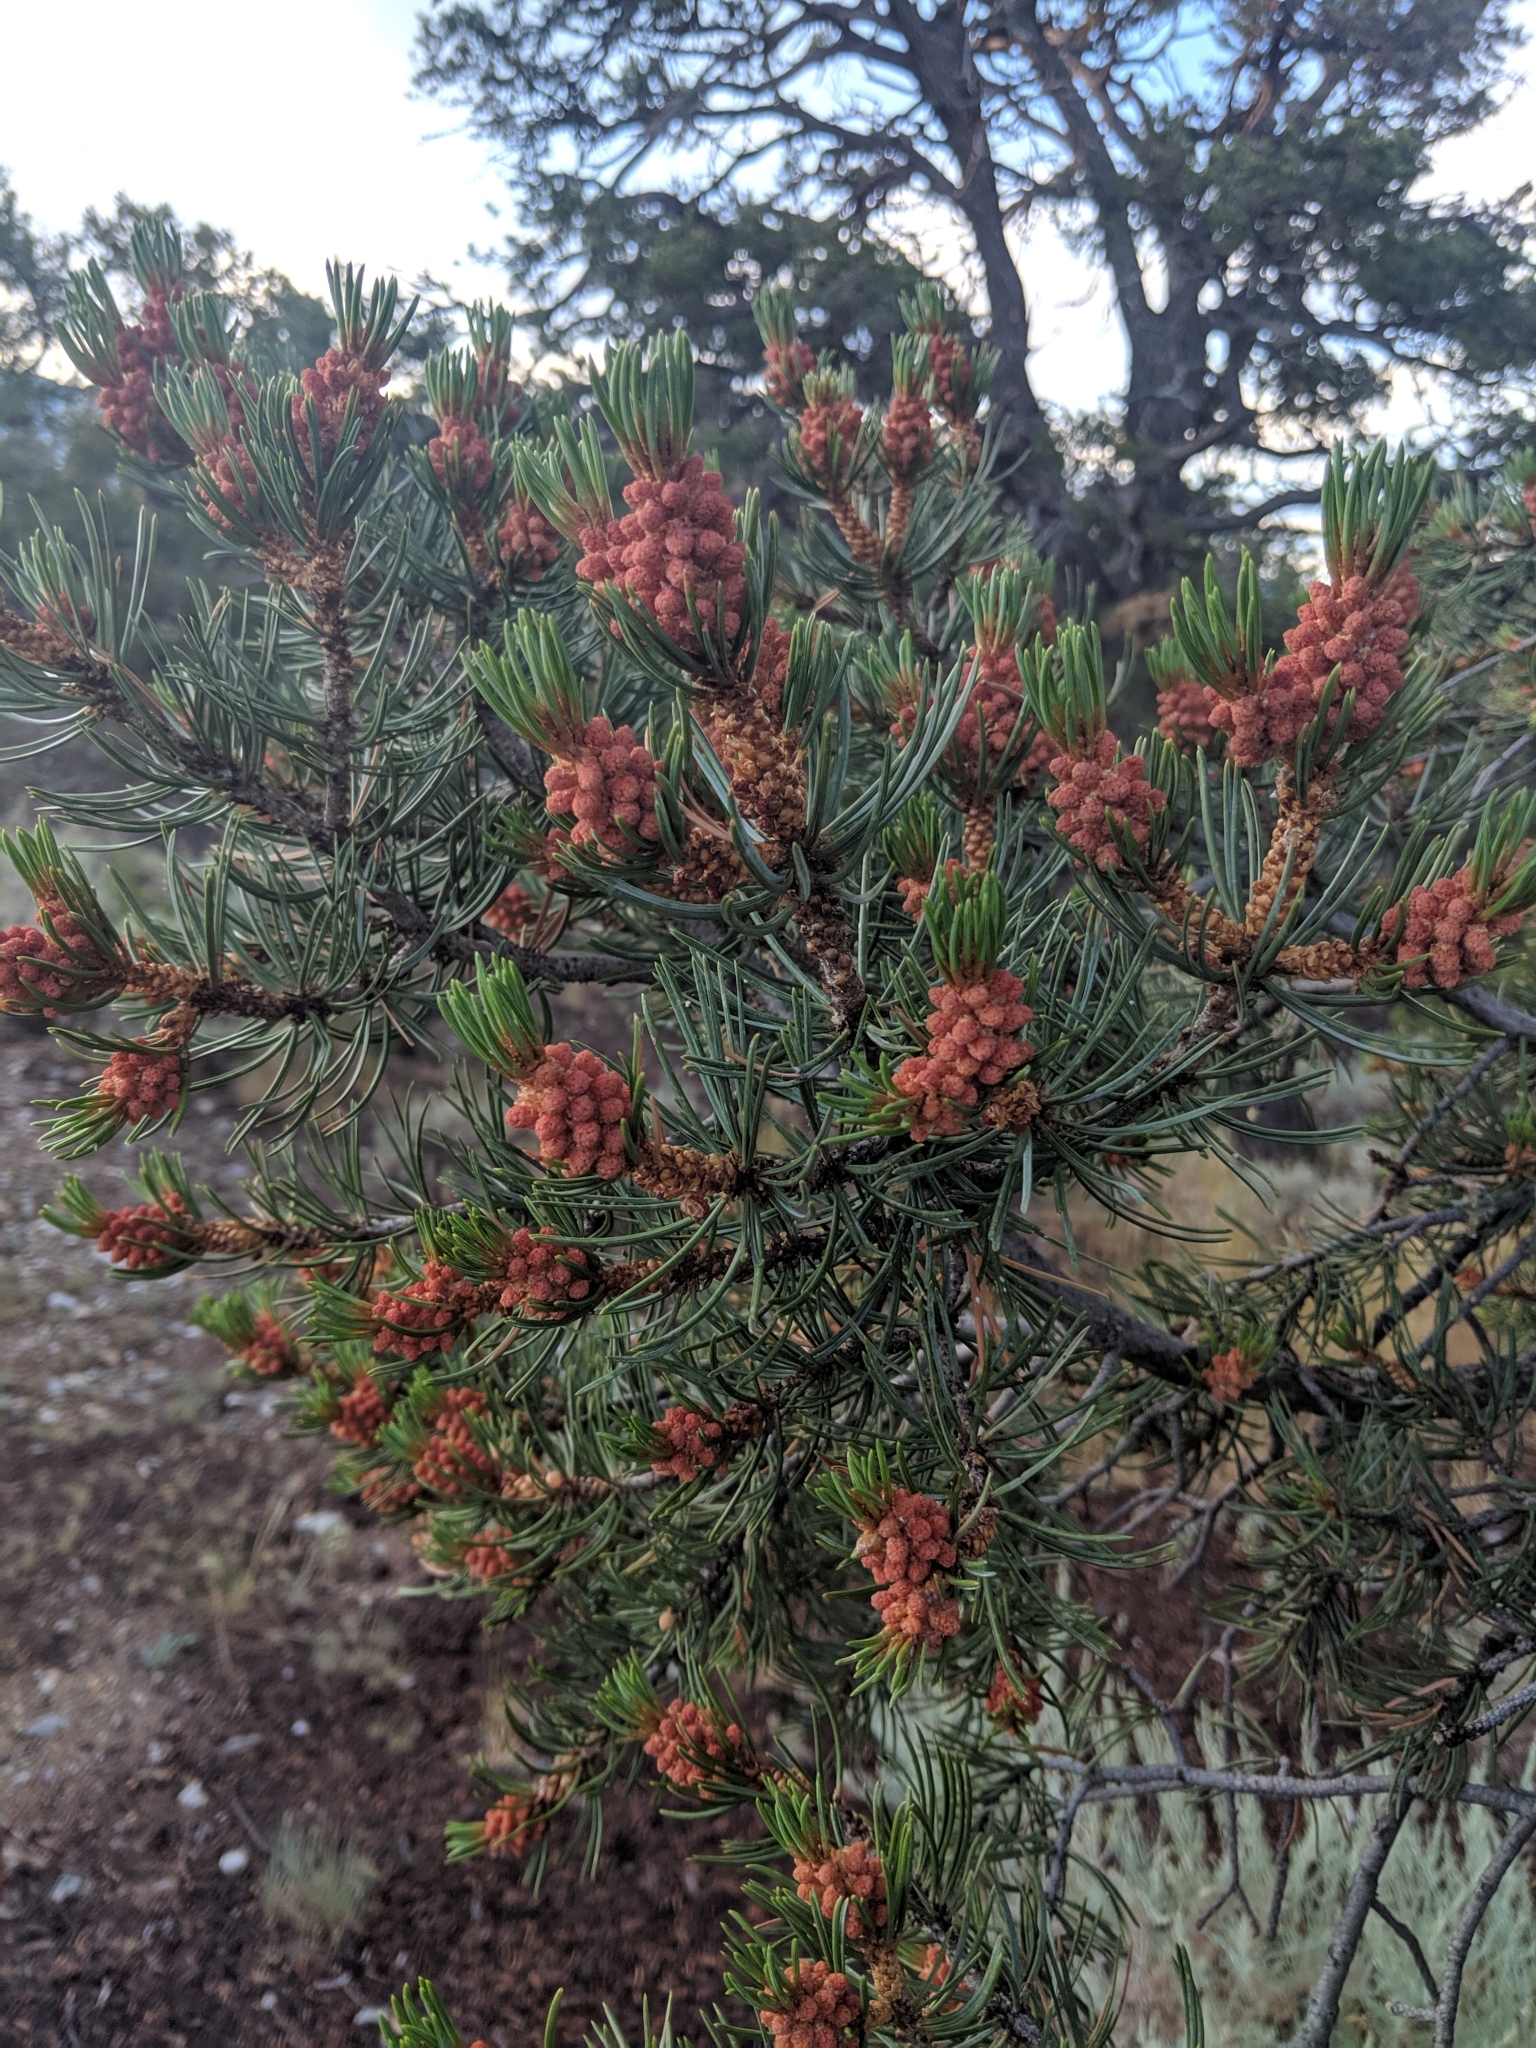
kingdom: Plantae
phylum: Tracheophyta
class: Pinopsida
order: Pinales
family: Pinaceae
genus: Pinus
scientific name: Pinus edulis
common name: Colorado pinyon
